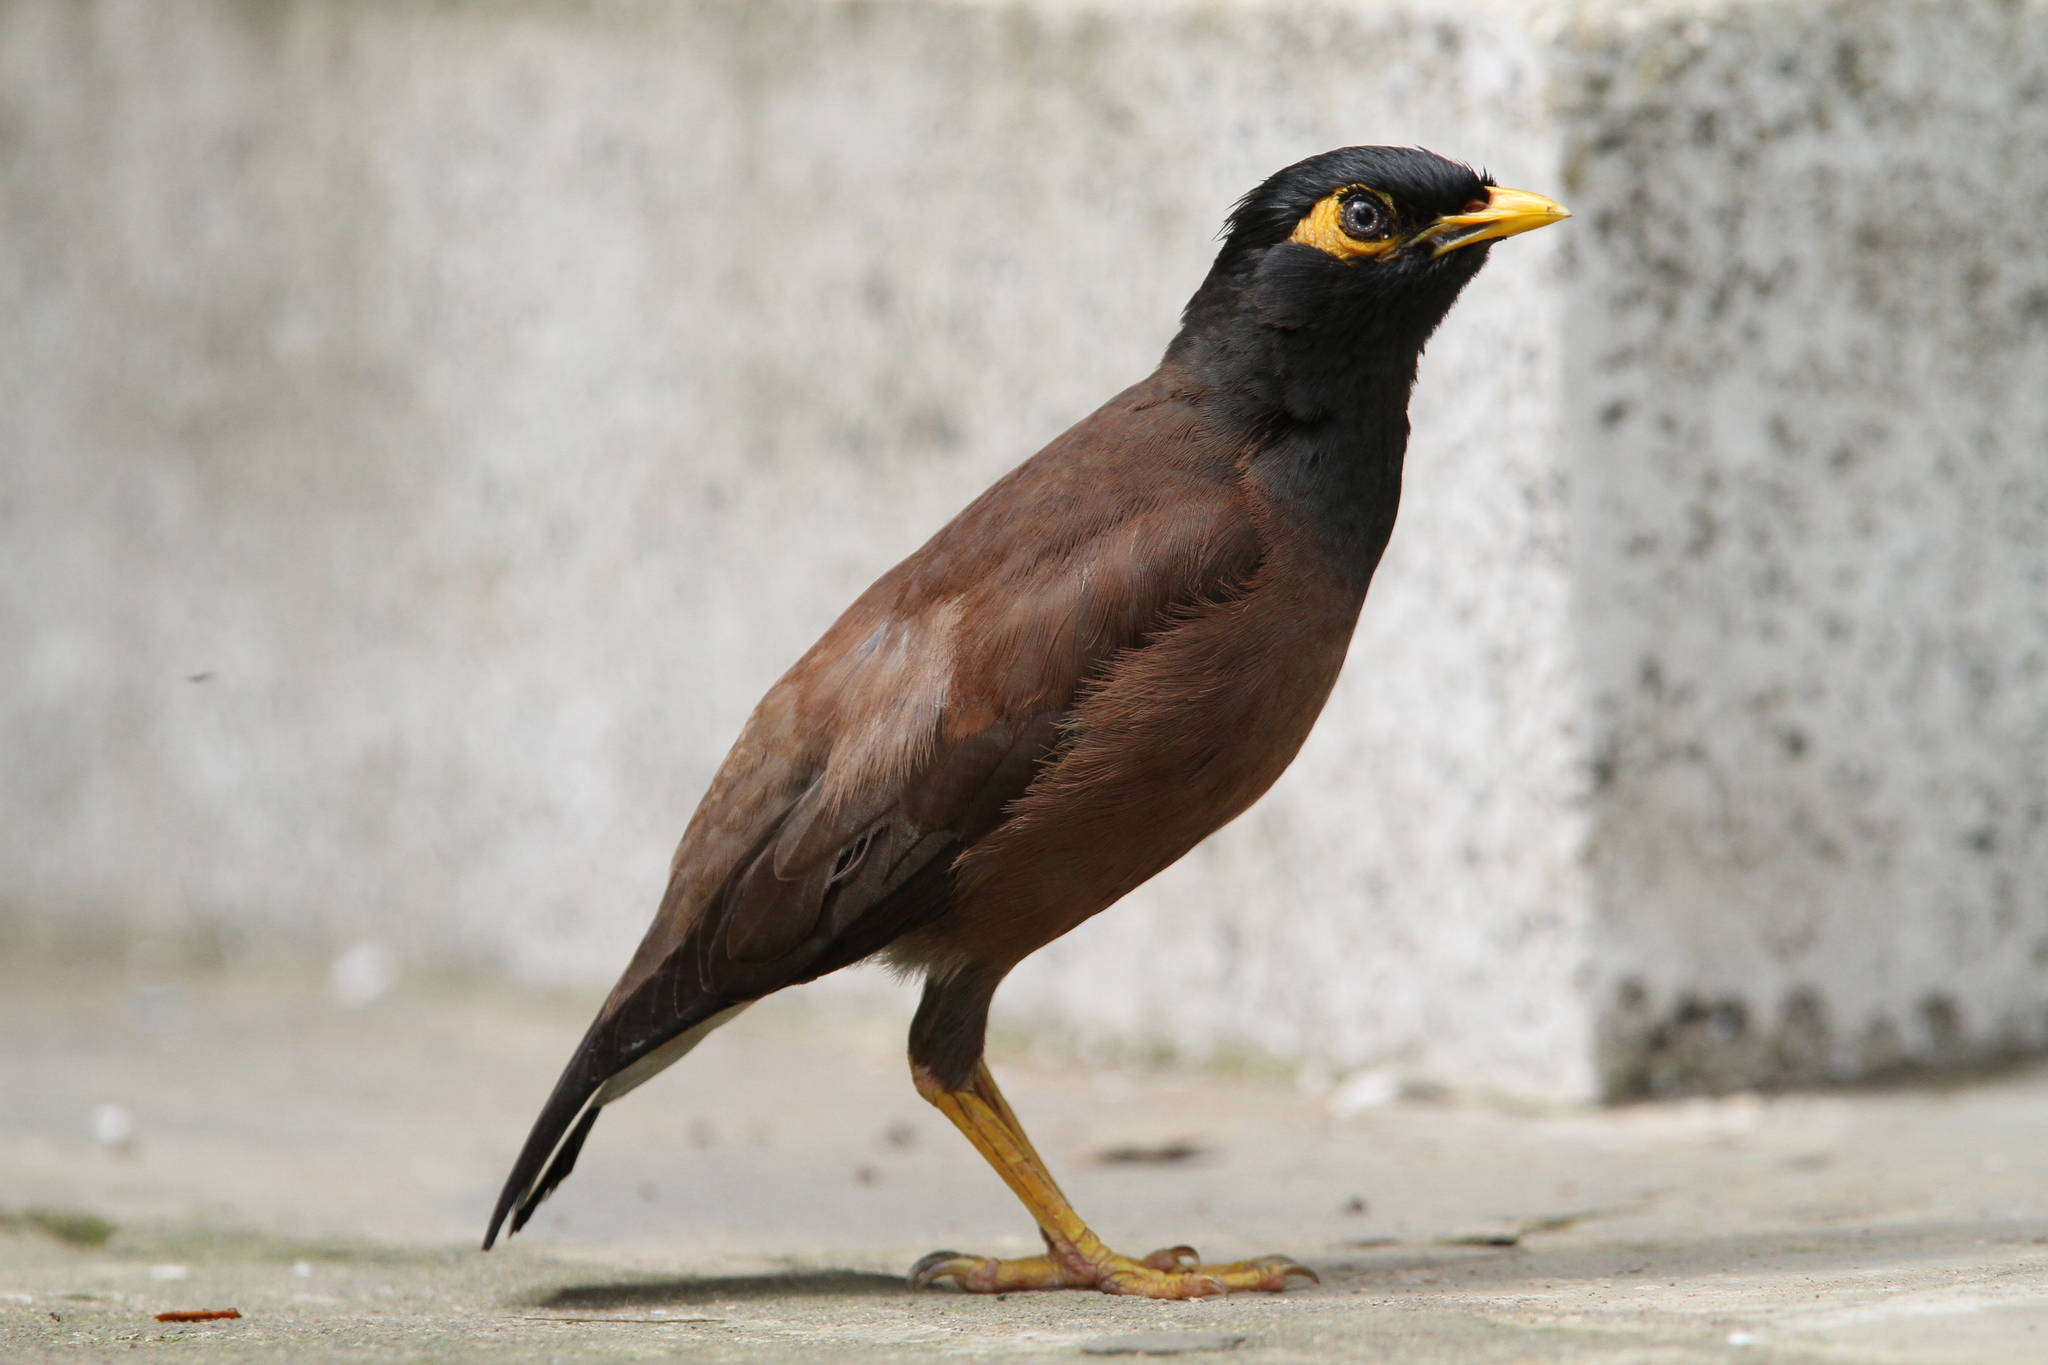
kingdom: Animalia
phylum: Chordata
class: Aves
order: Passeriformes
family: Sturnidae
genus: Acridotheres
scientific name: Acridotheres tristis
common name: Common myna
